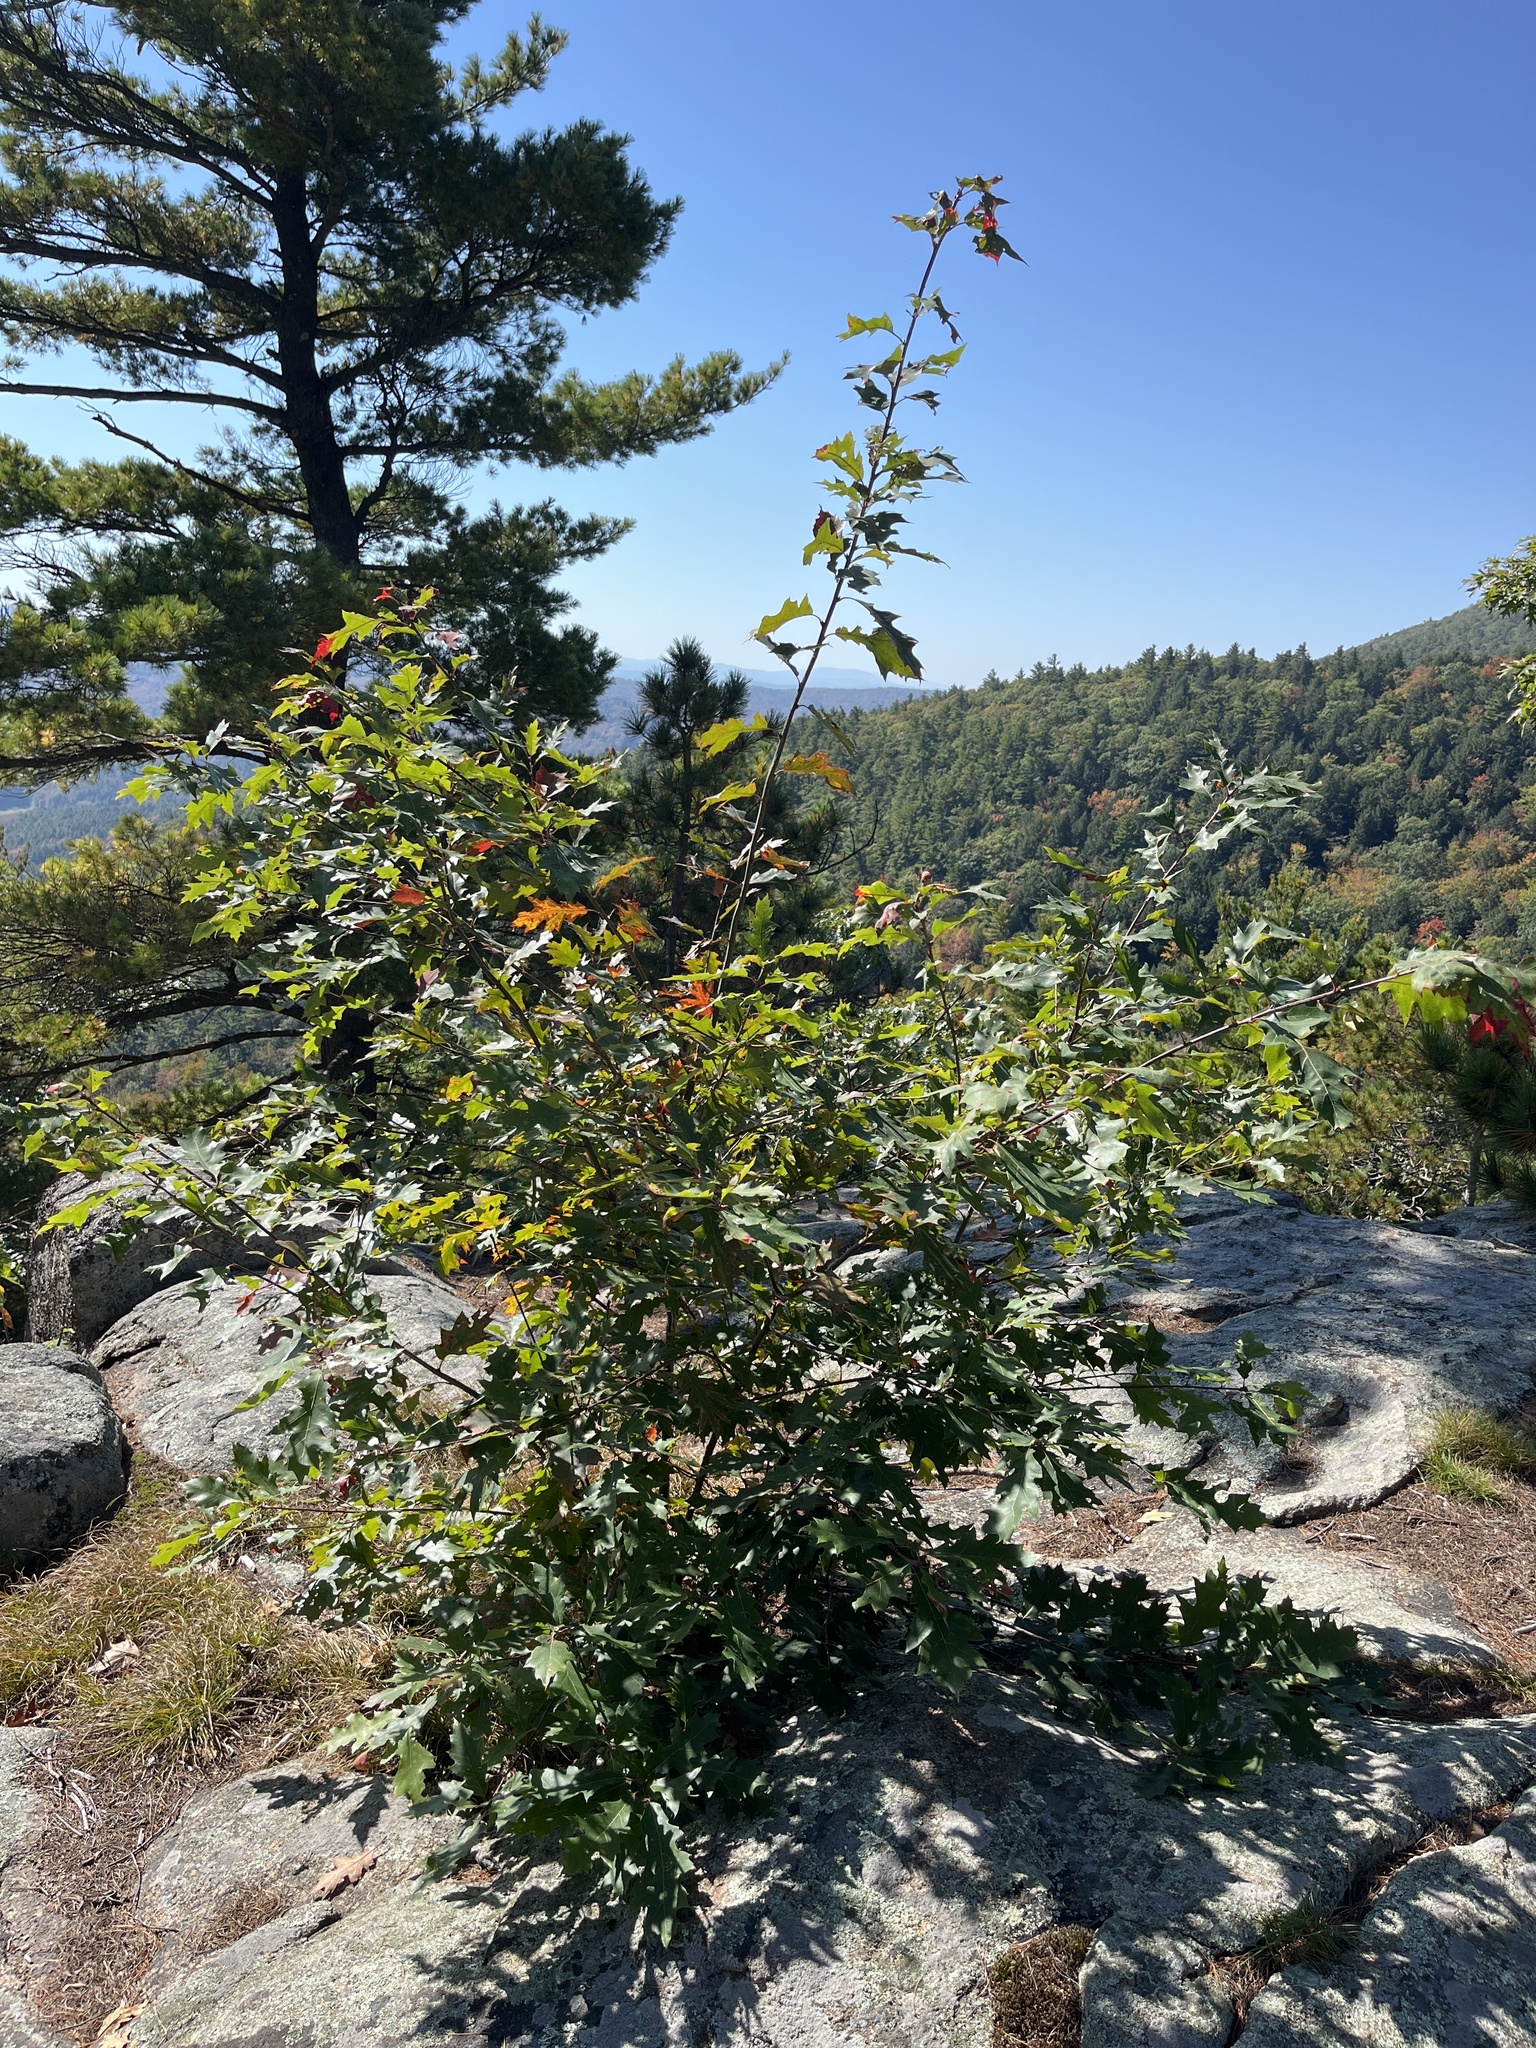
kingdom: Plantae
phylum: Tracheophyta
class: Magnoliopsida
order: Fagales
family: Fagaceae
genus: Quercus
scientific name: Quercus rubra
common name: Red oak
